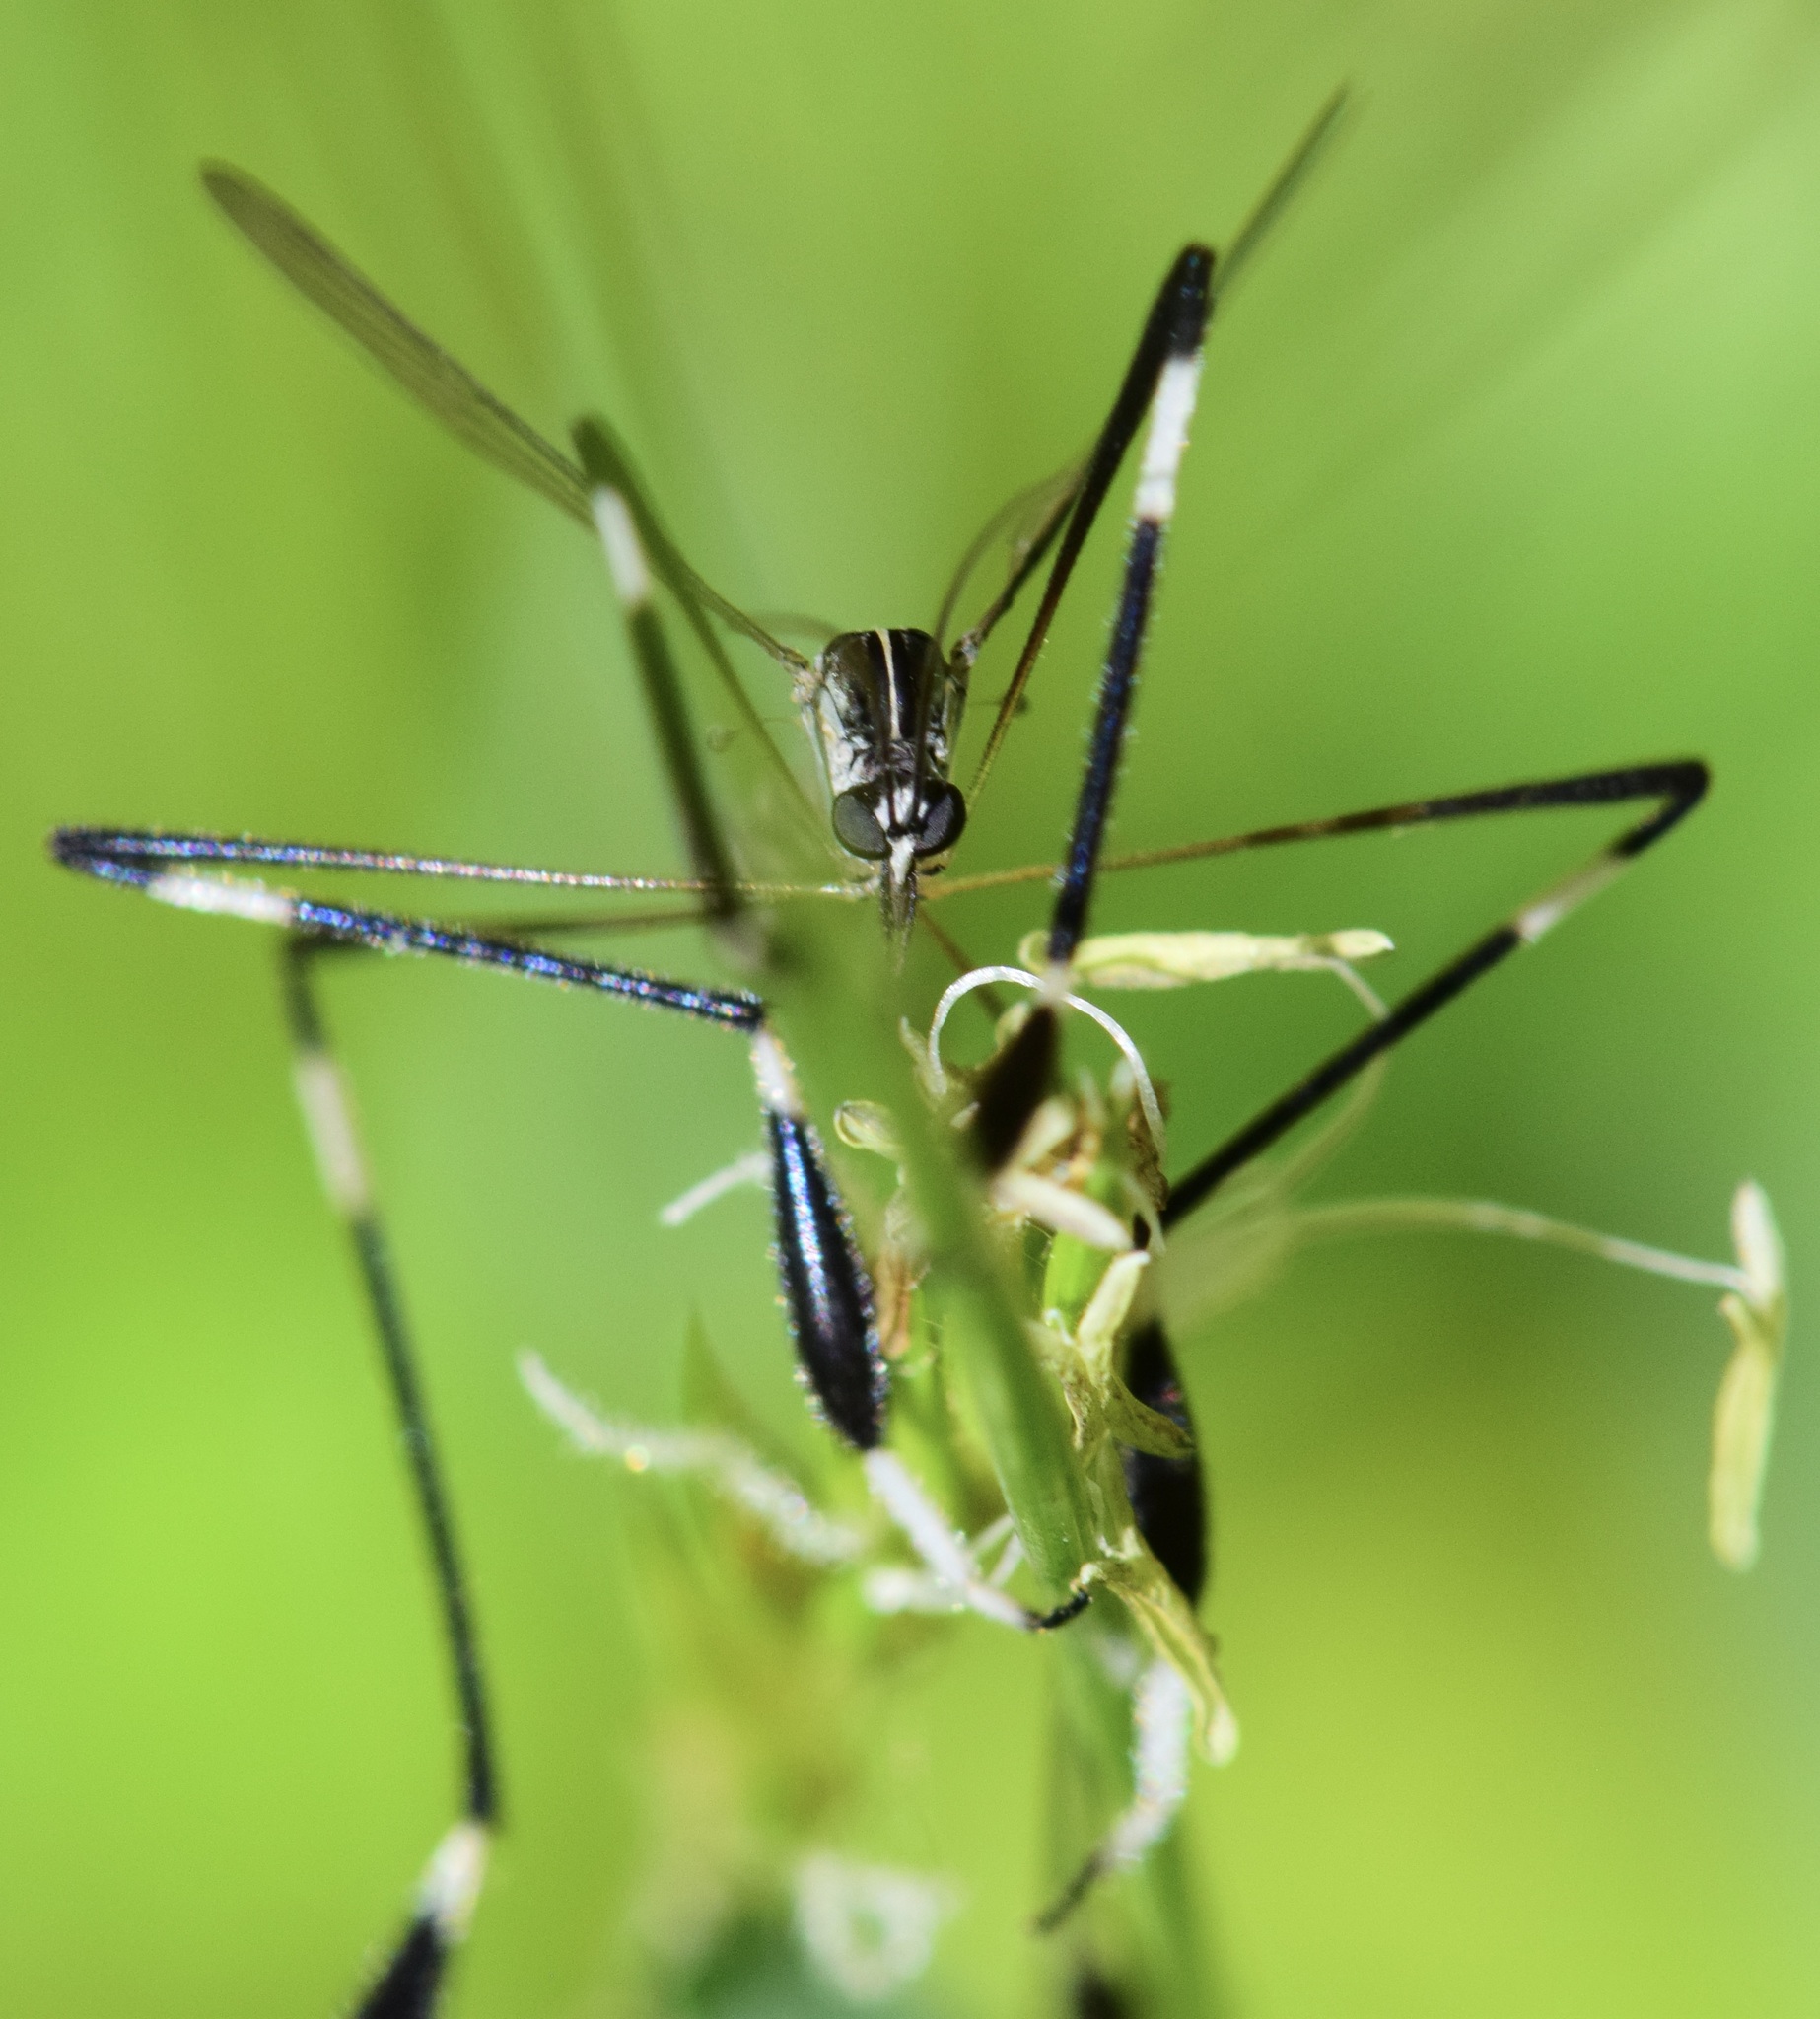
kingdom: Animalia
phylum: Arthropoda
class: Insecta
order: Diptera
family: Ptychopteridae
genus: Bittacomorpha
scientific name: Bittacomorpha clavipes
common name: Eastern phantom crane fly
